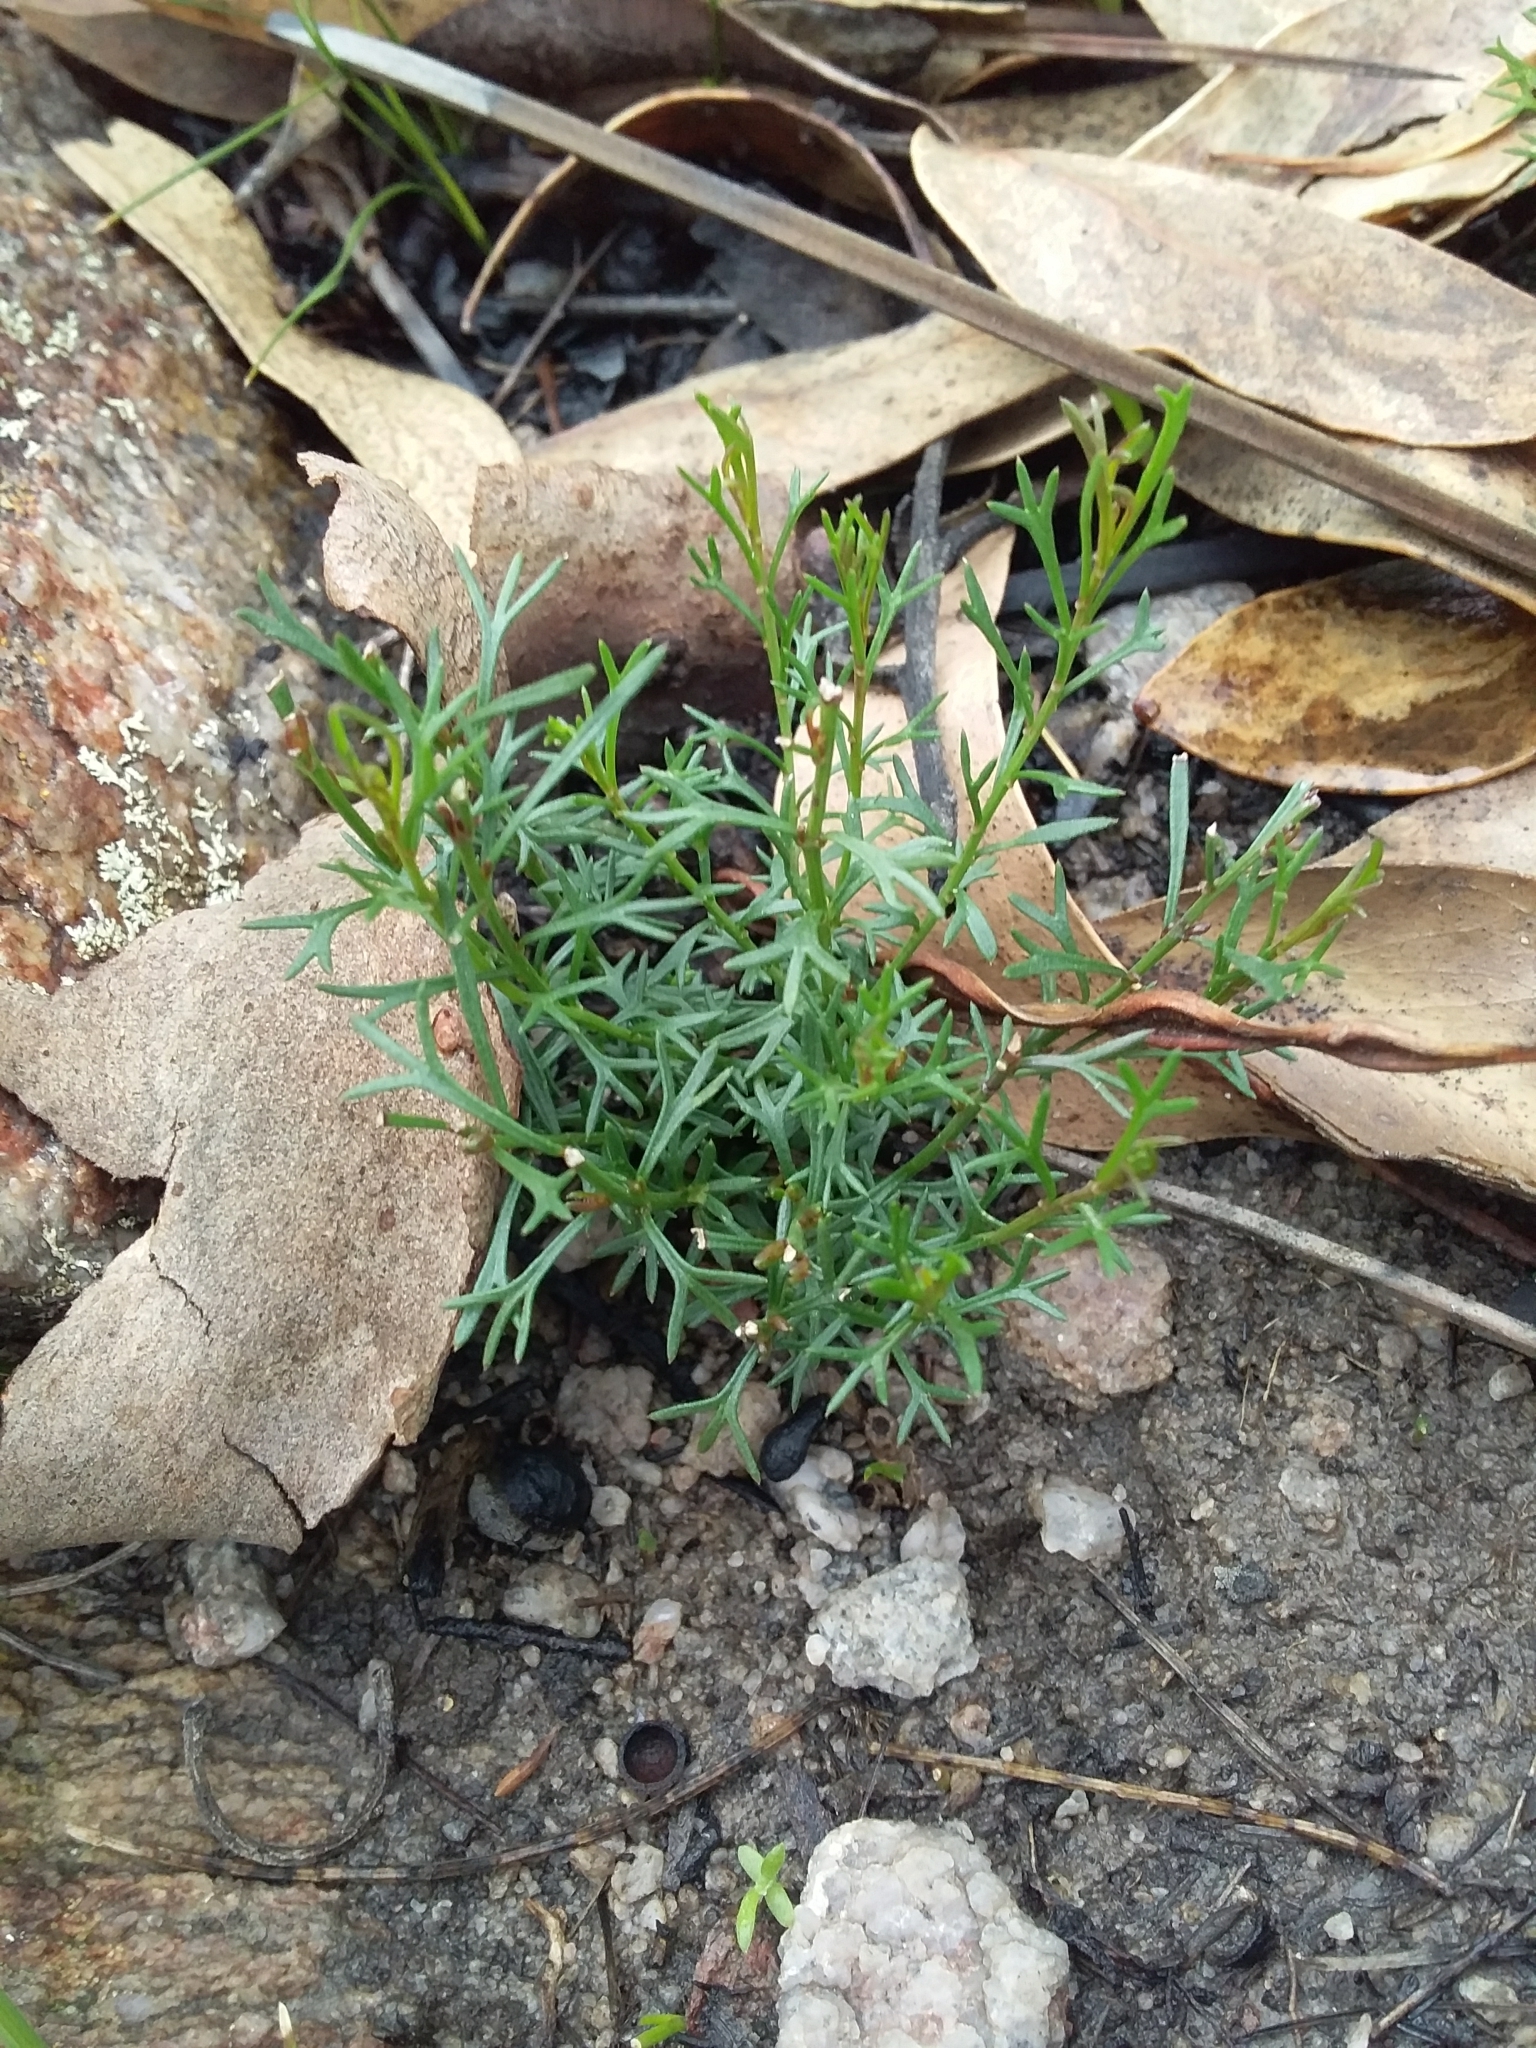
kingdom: Plantae
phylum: Tracheophyta
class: Magnoliopsida
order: Proteales
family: Proteaceae
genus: Isopogon
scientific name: Isopogon ceratophyllus
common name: Horny cone-bush
